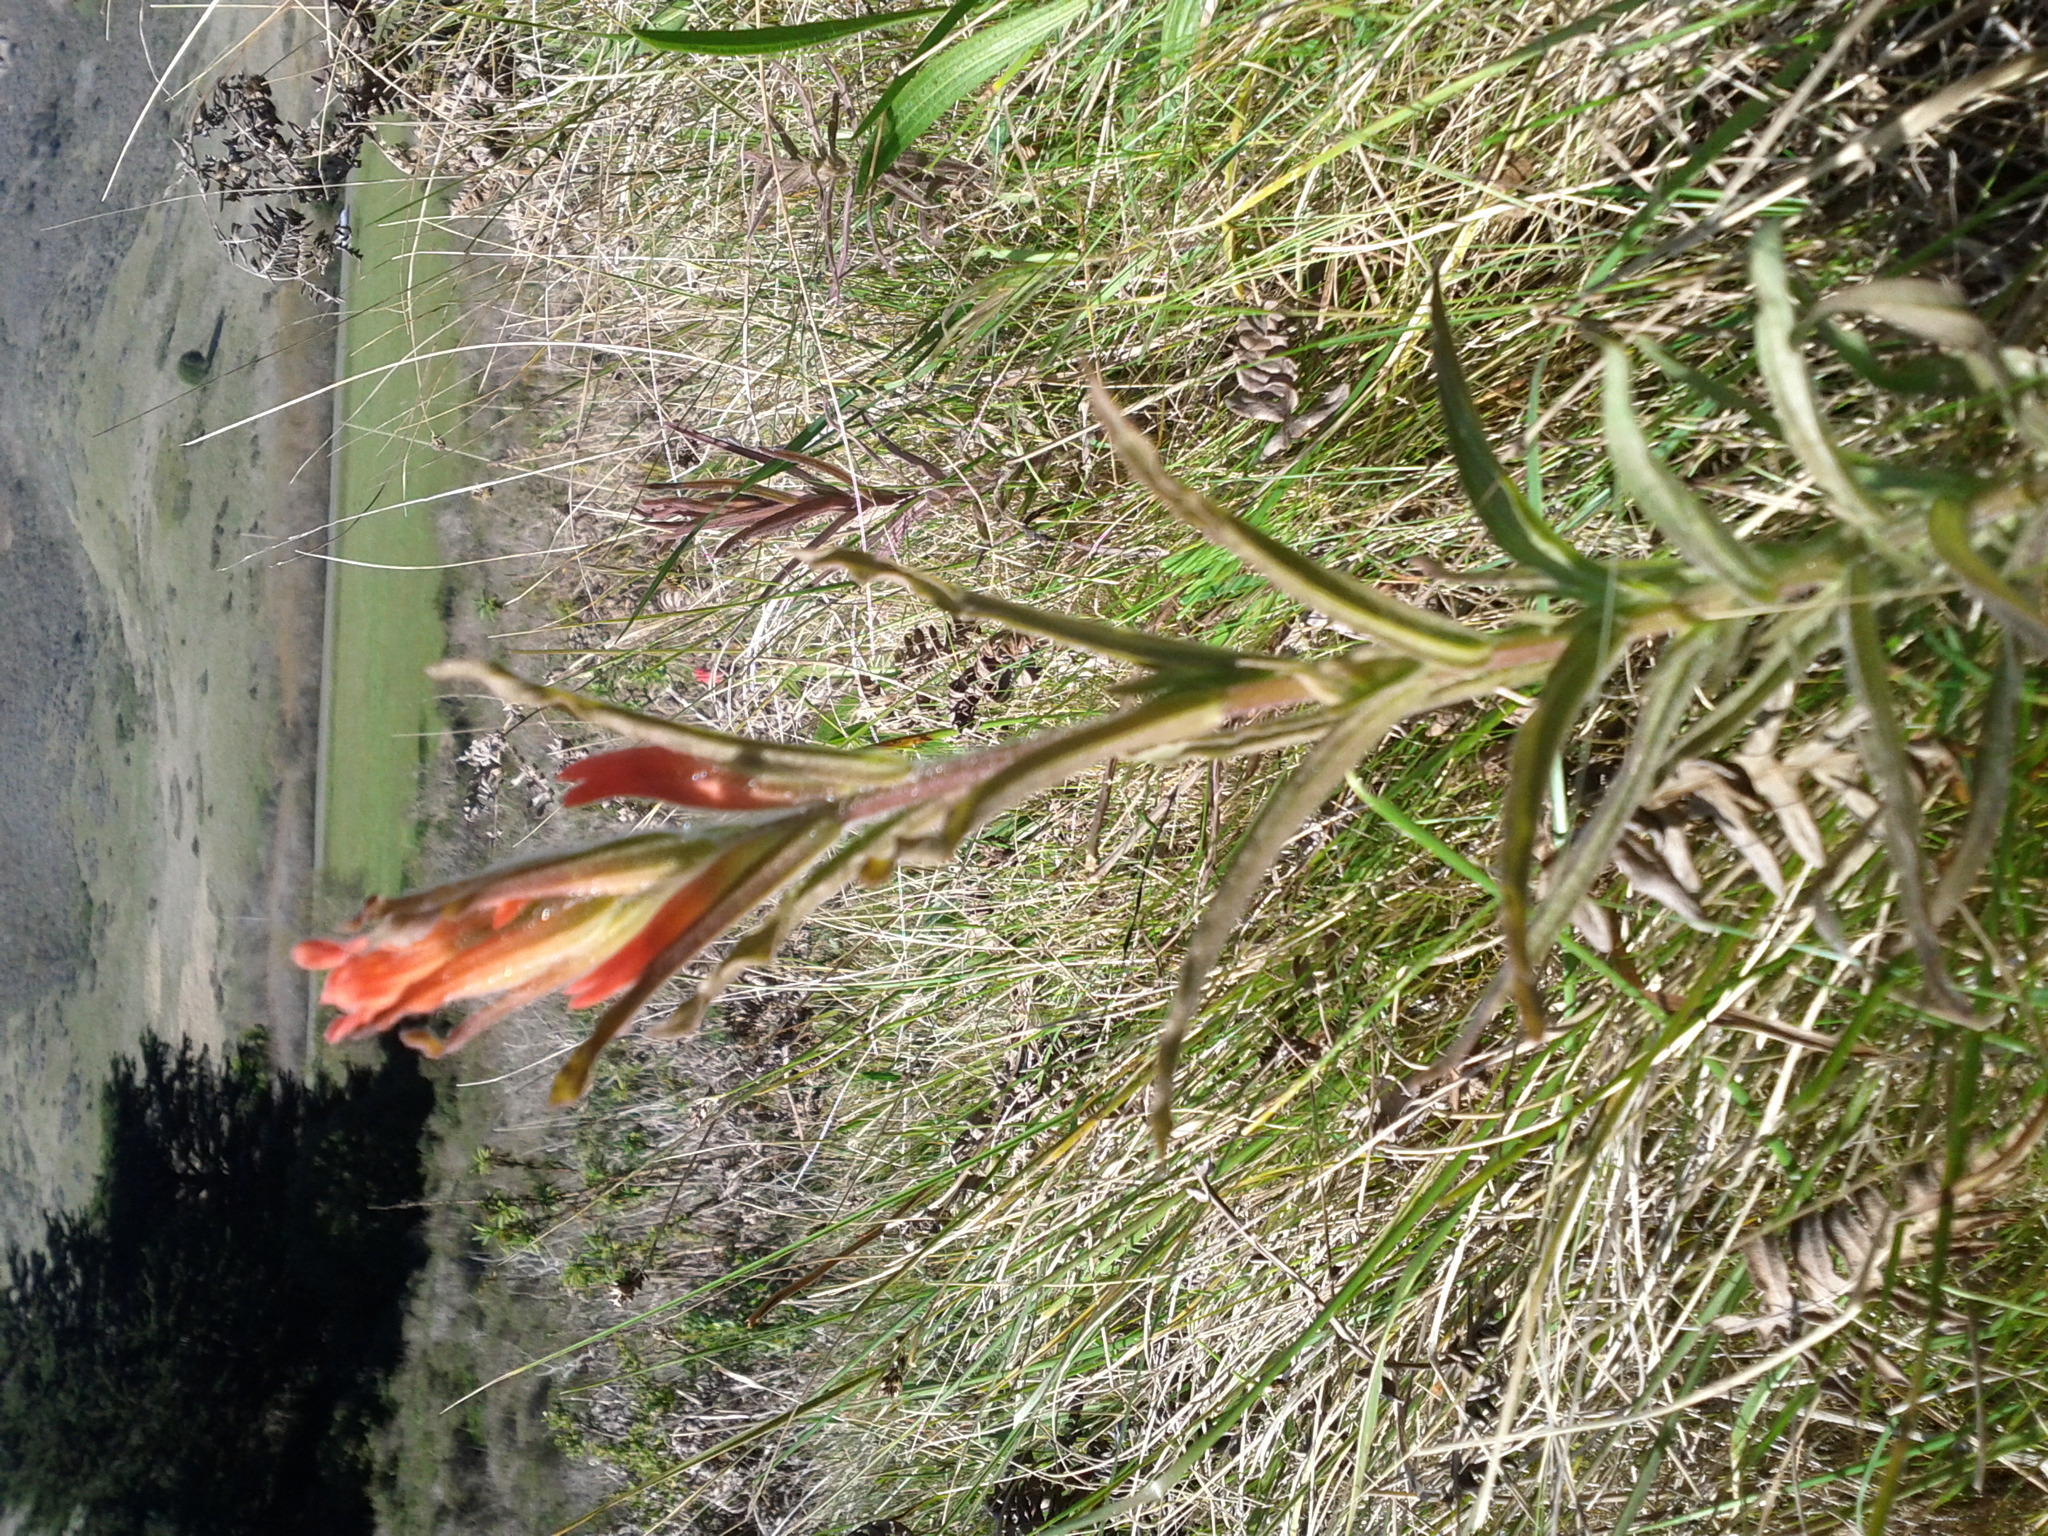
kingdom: Plantae
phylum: Tracheophyta
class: Magnoliopsida
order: Lamiales
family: Orobanchaceae
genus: Castilleja
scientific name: Castilleja affinis
